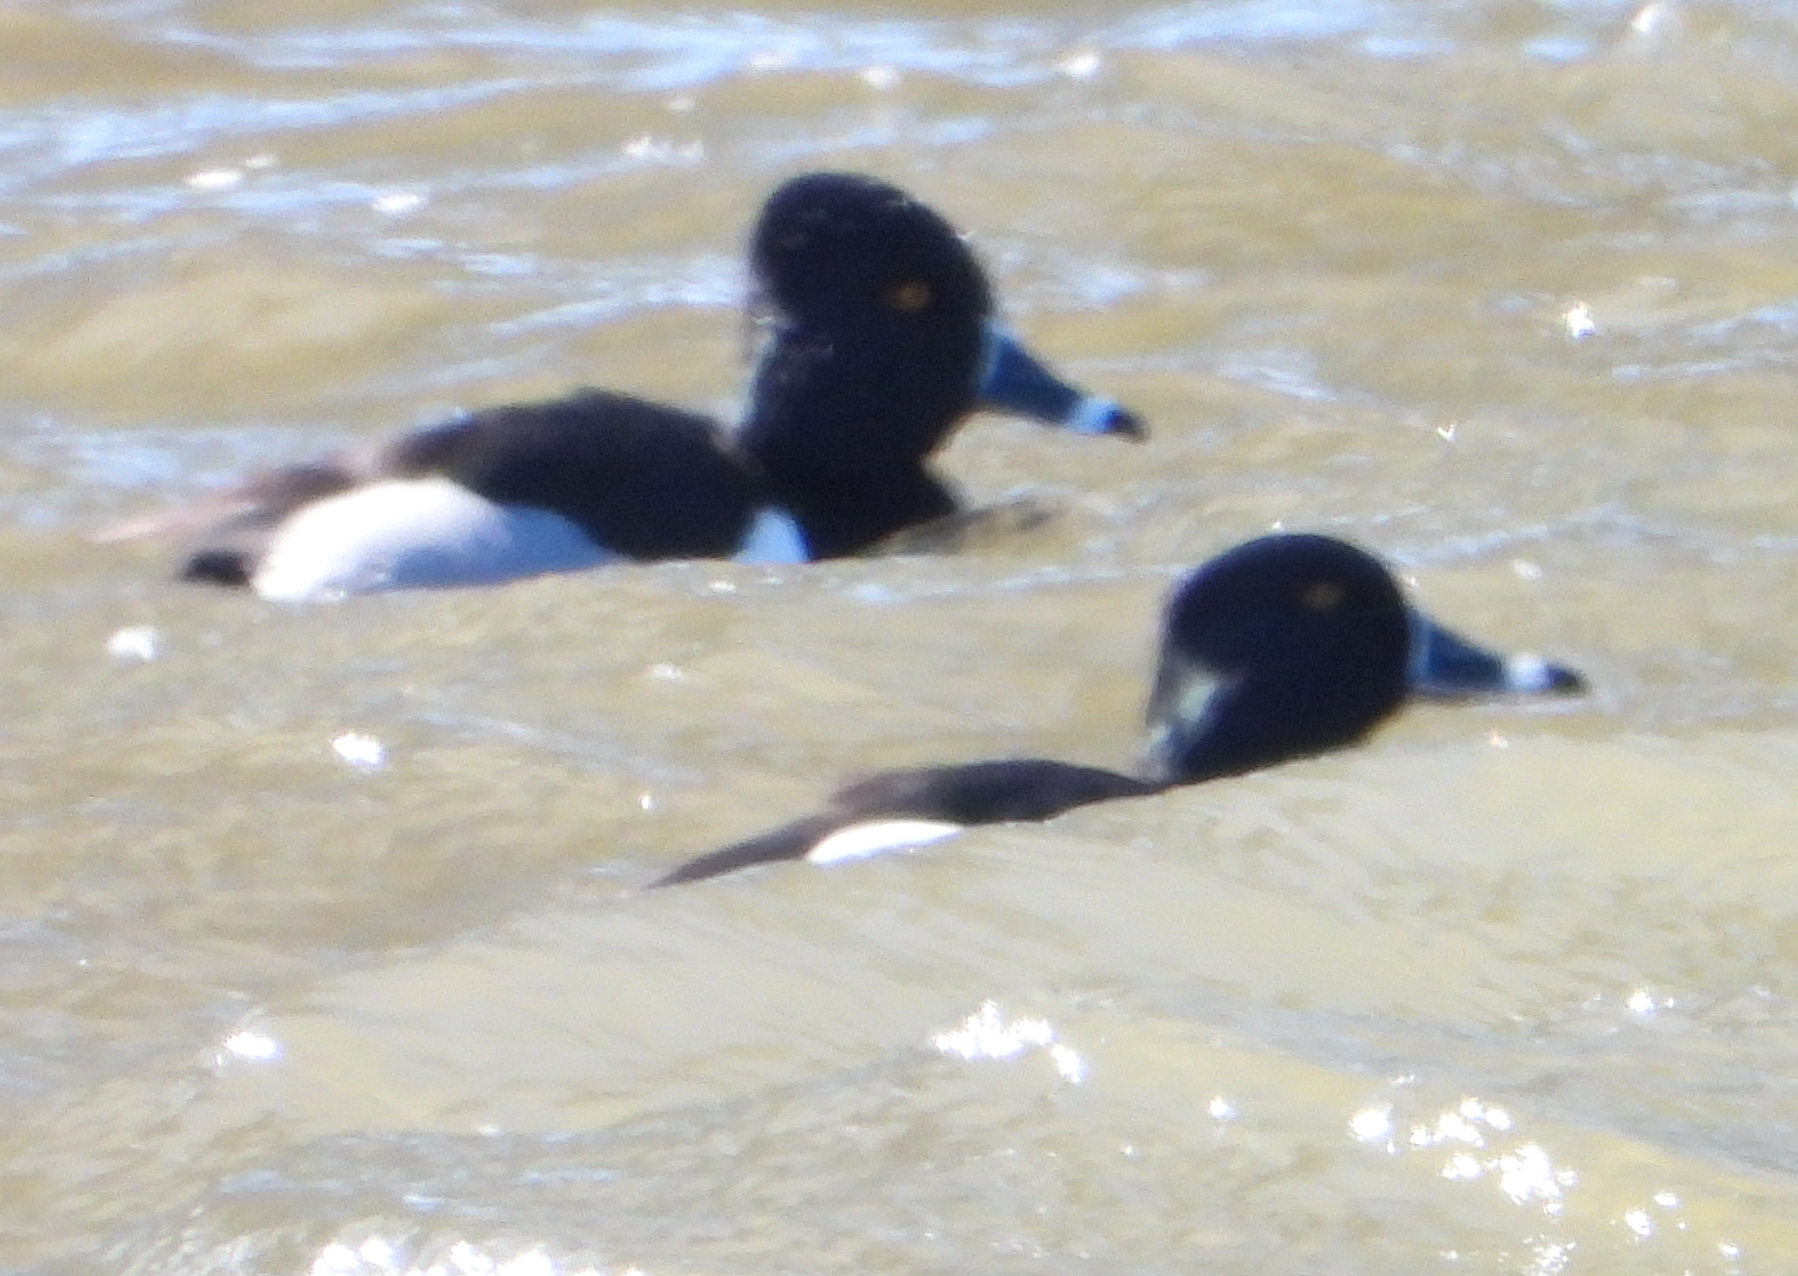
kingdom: Animalia
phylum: Chordata
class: Aves
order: Anseriformes
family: Anatidae
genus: Aythya
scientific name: Aythya collaris
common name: Ring-necked duck
